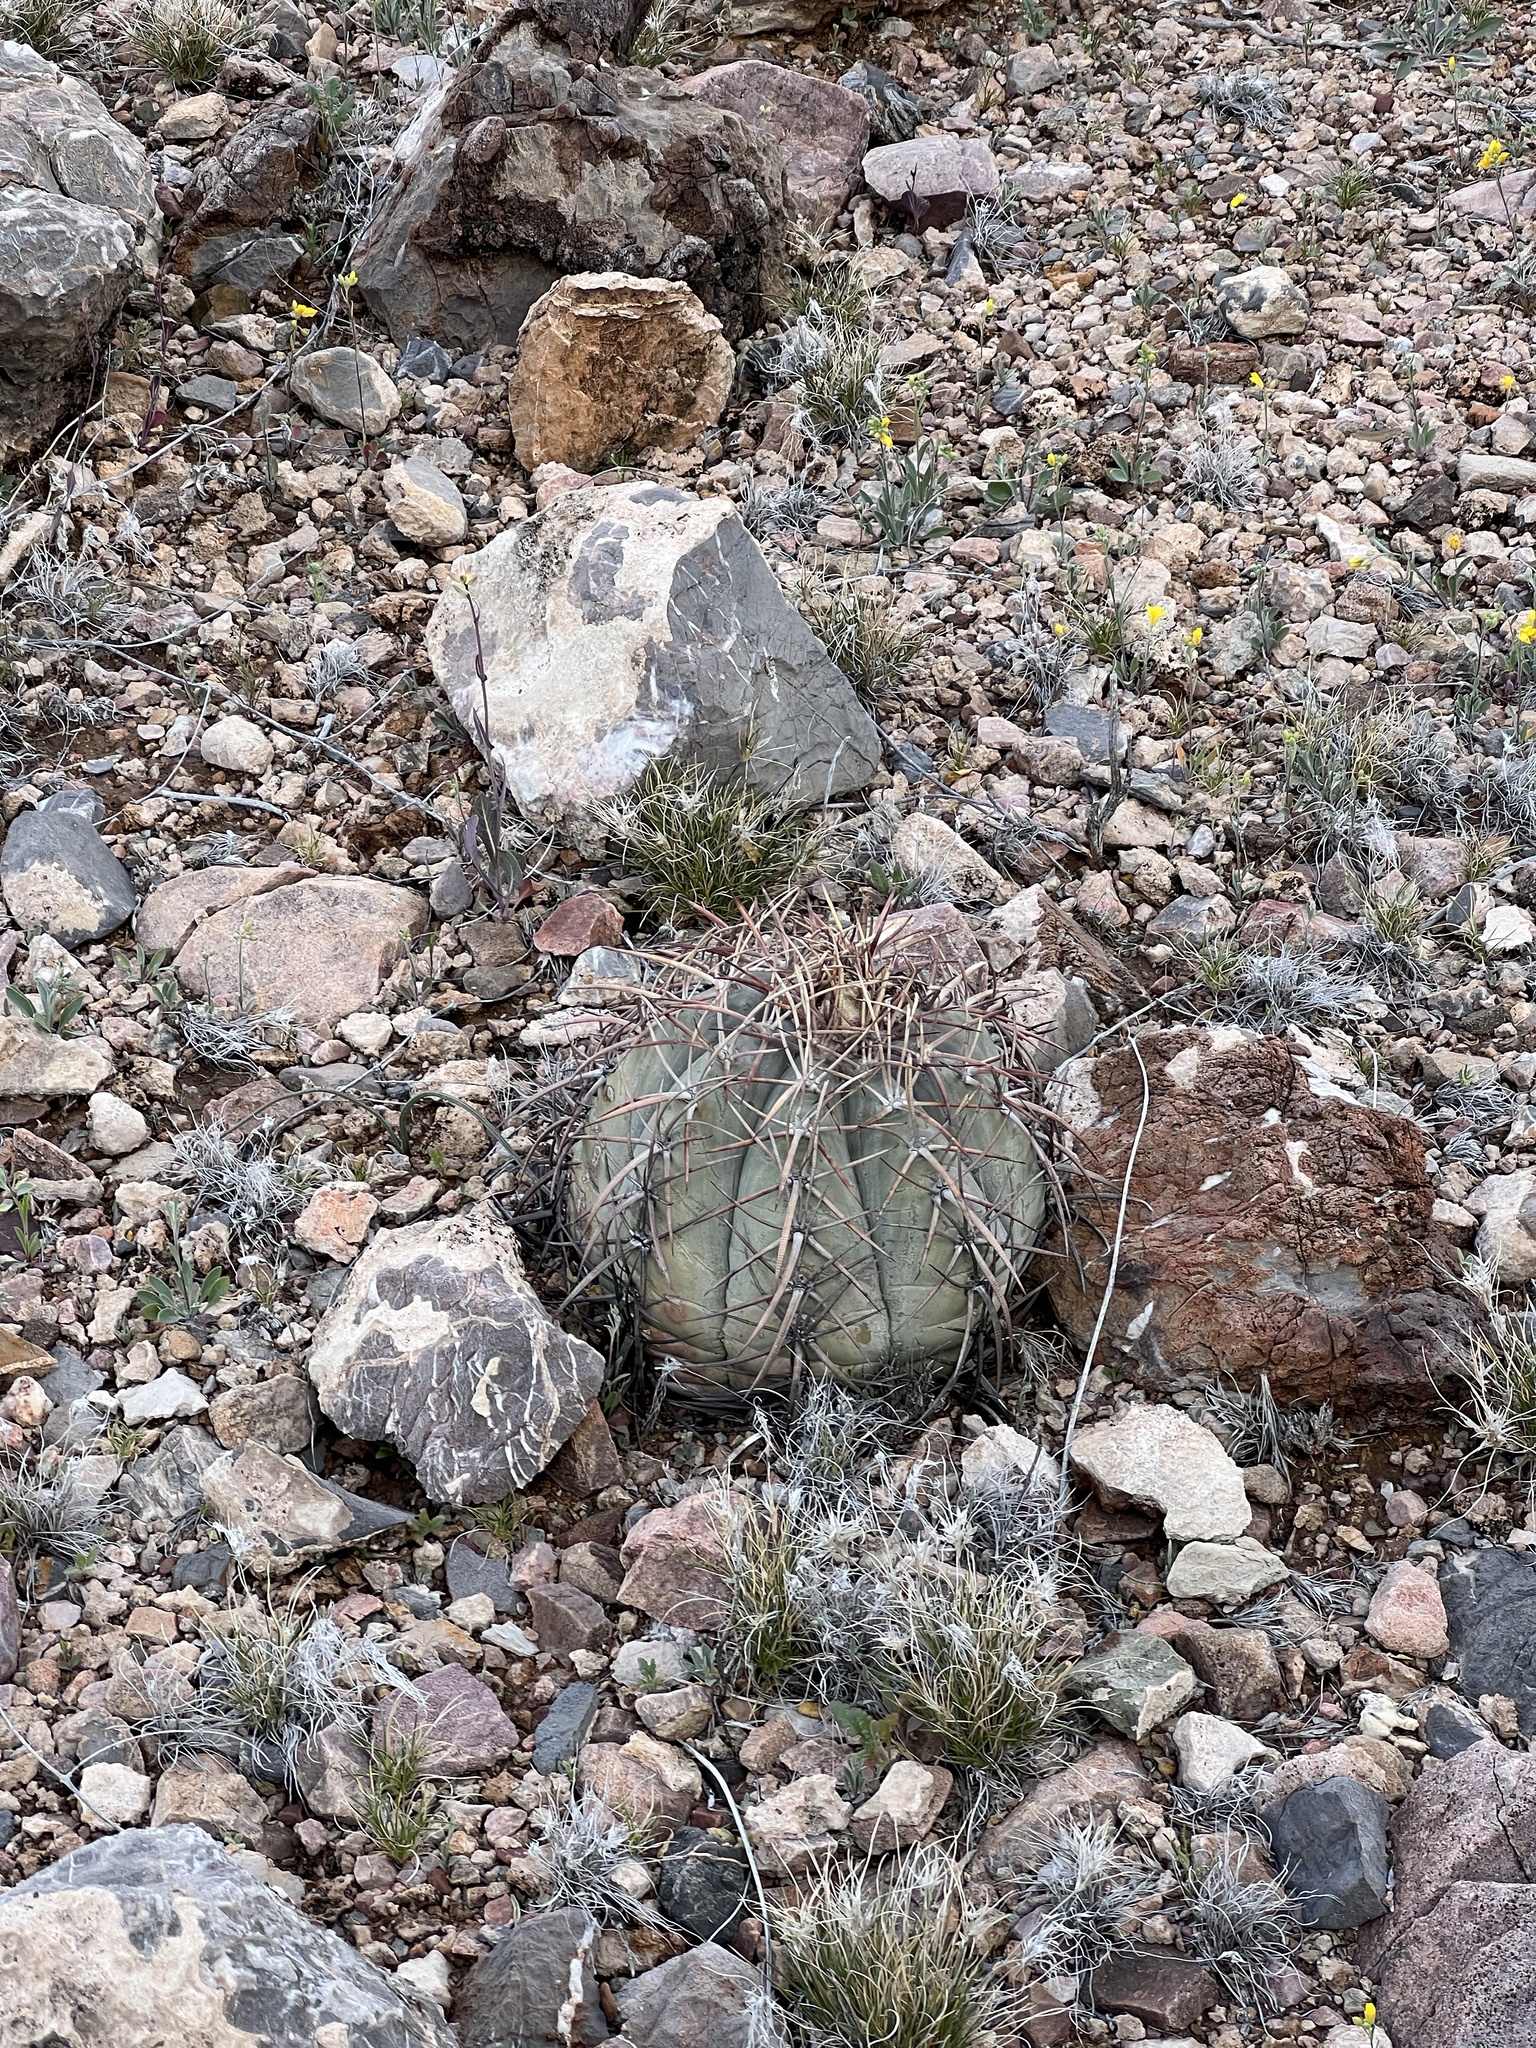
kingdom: Plantae
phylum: Tracheophyta
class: Magnoliopsida
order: Caryophyllales
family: Cactaceae
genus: Echinocactus
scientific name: Echinocactus horizonthalonius
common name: Devilshead
